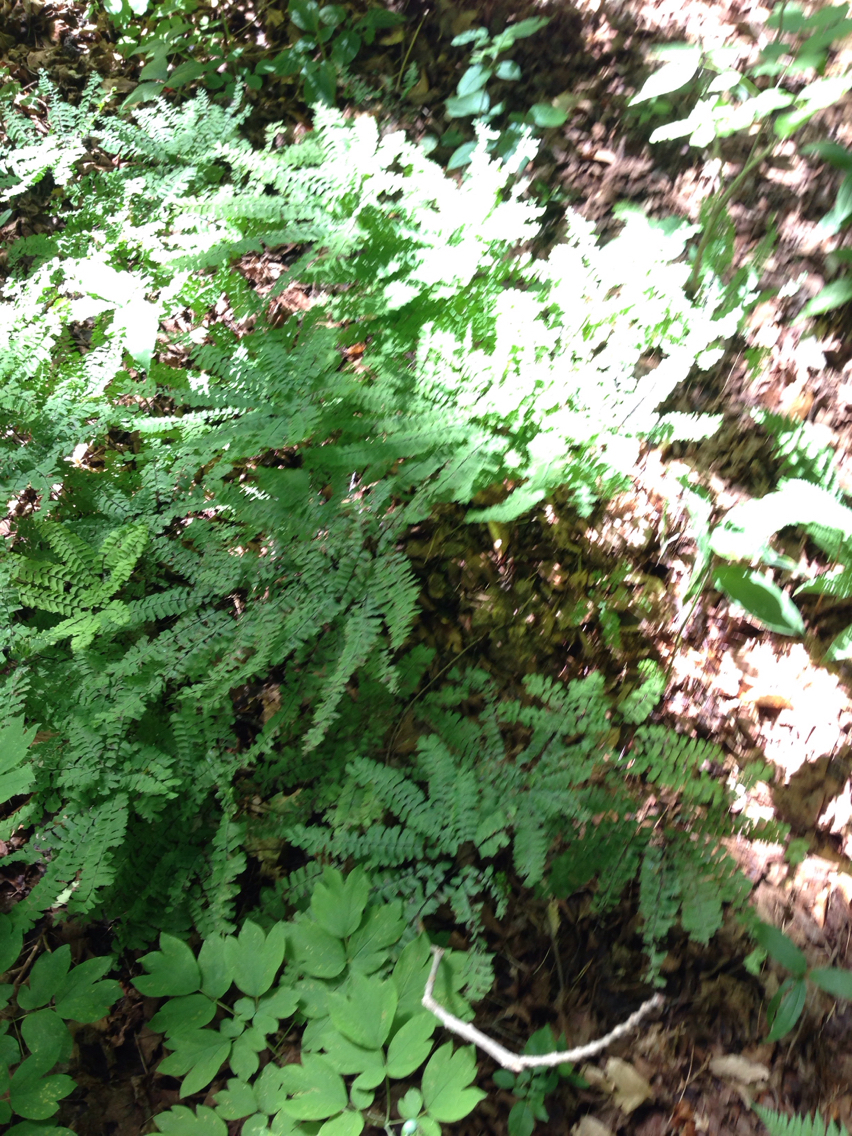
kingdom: Plantae
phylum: Tracheophyta
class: Polypodiopsida
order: Polypodiales
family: Pteridaceae
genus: Adiantum
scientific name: Adiantum pedatum
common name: Five-finger fern
